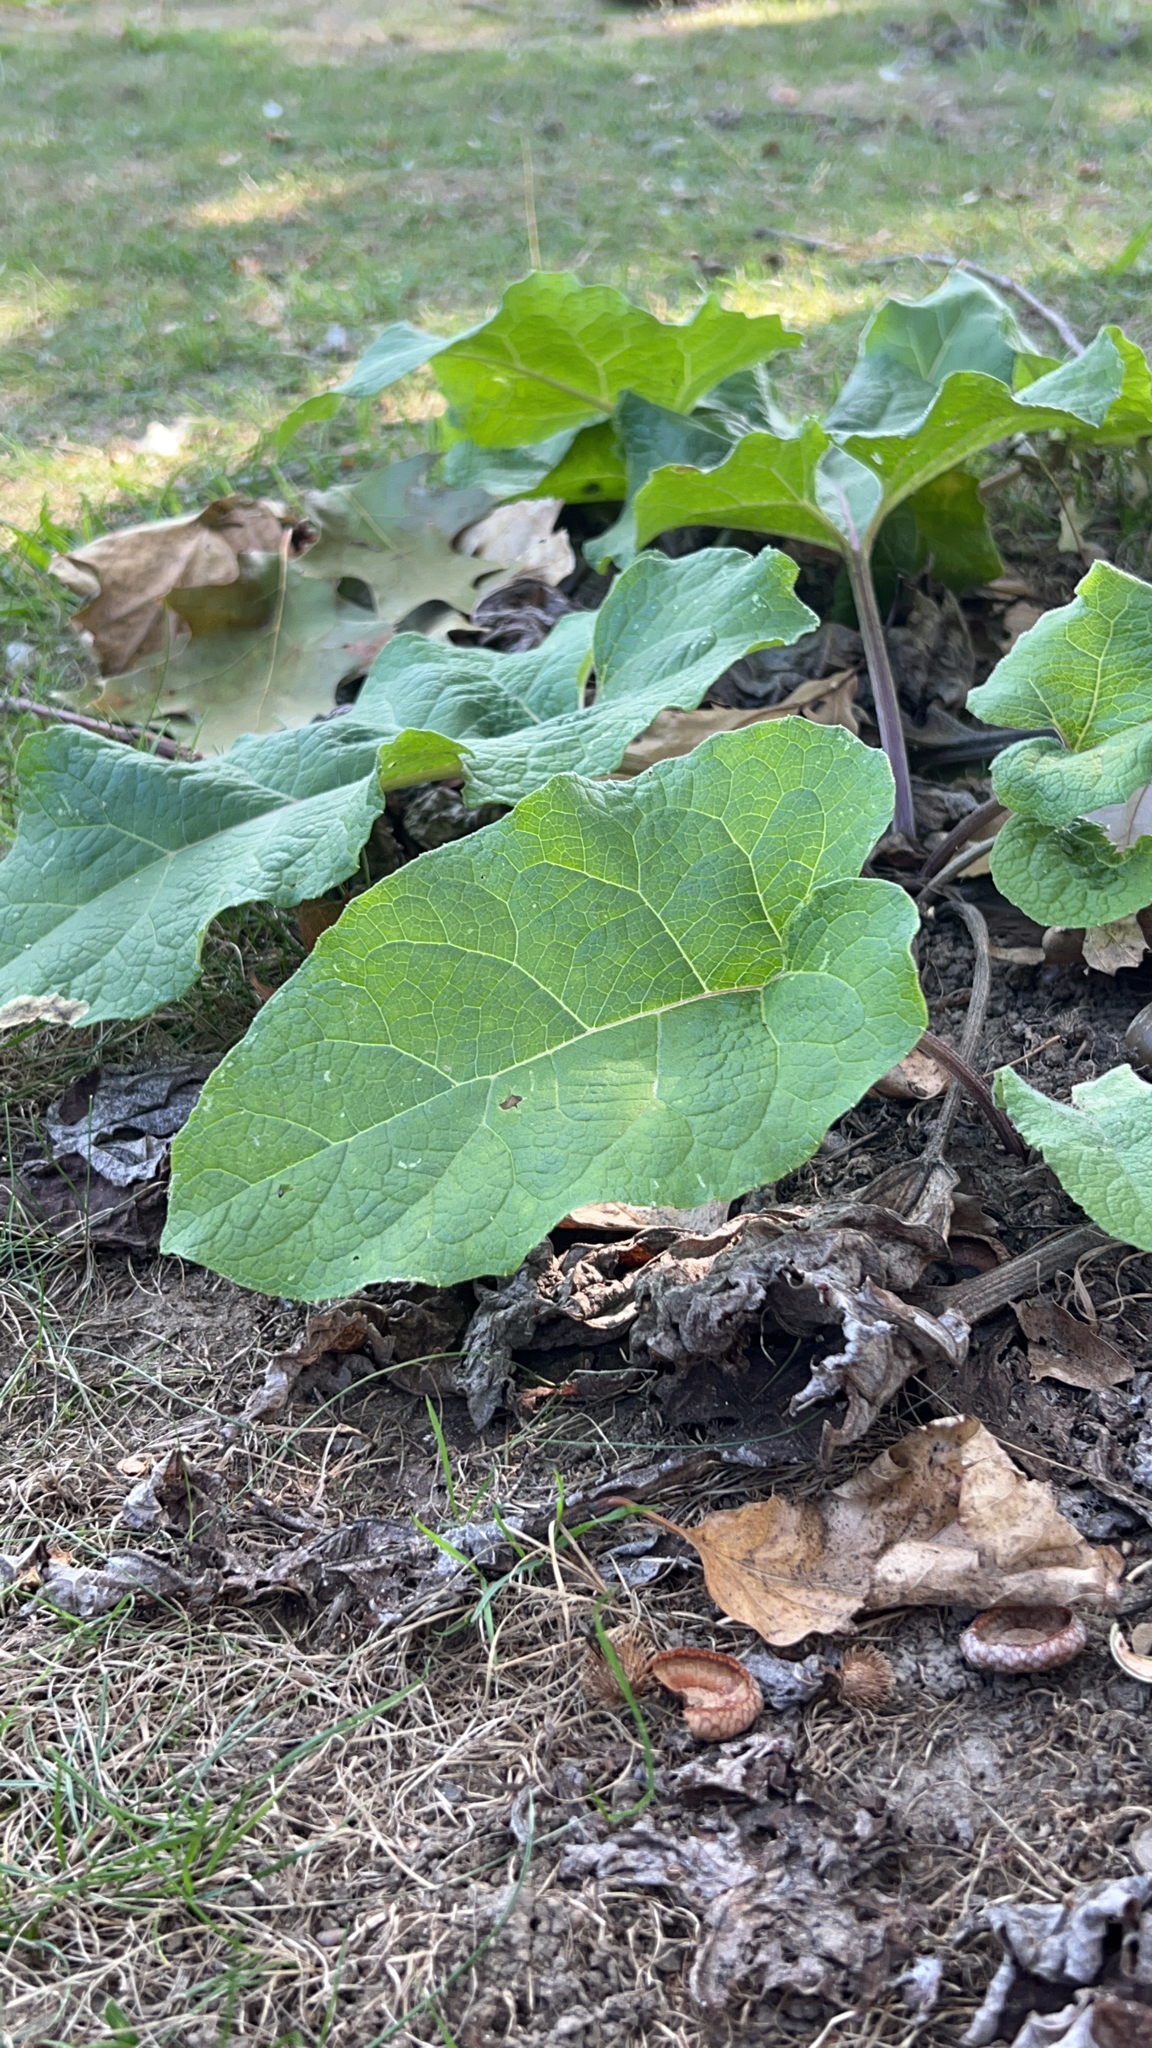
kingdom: Plantae
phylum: Tracheophyta
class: Magnoliopsida
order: Asterales
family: Asteraceae
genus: Arctium
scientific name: Arctium
